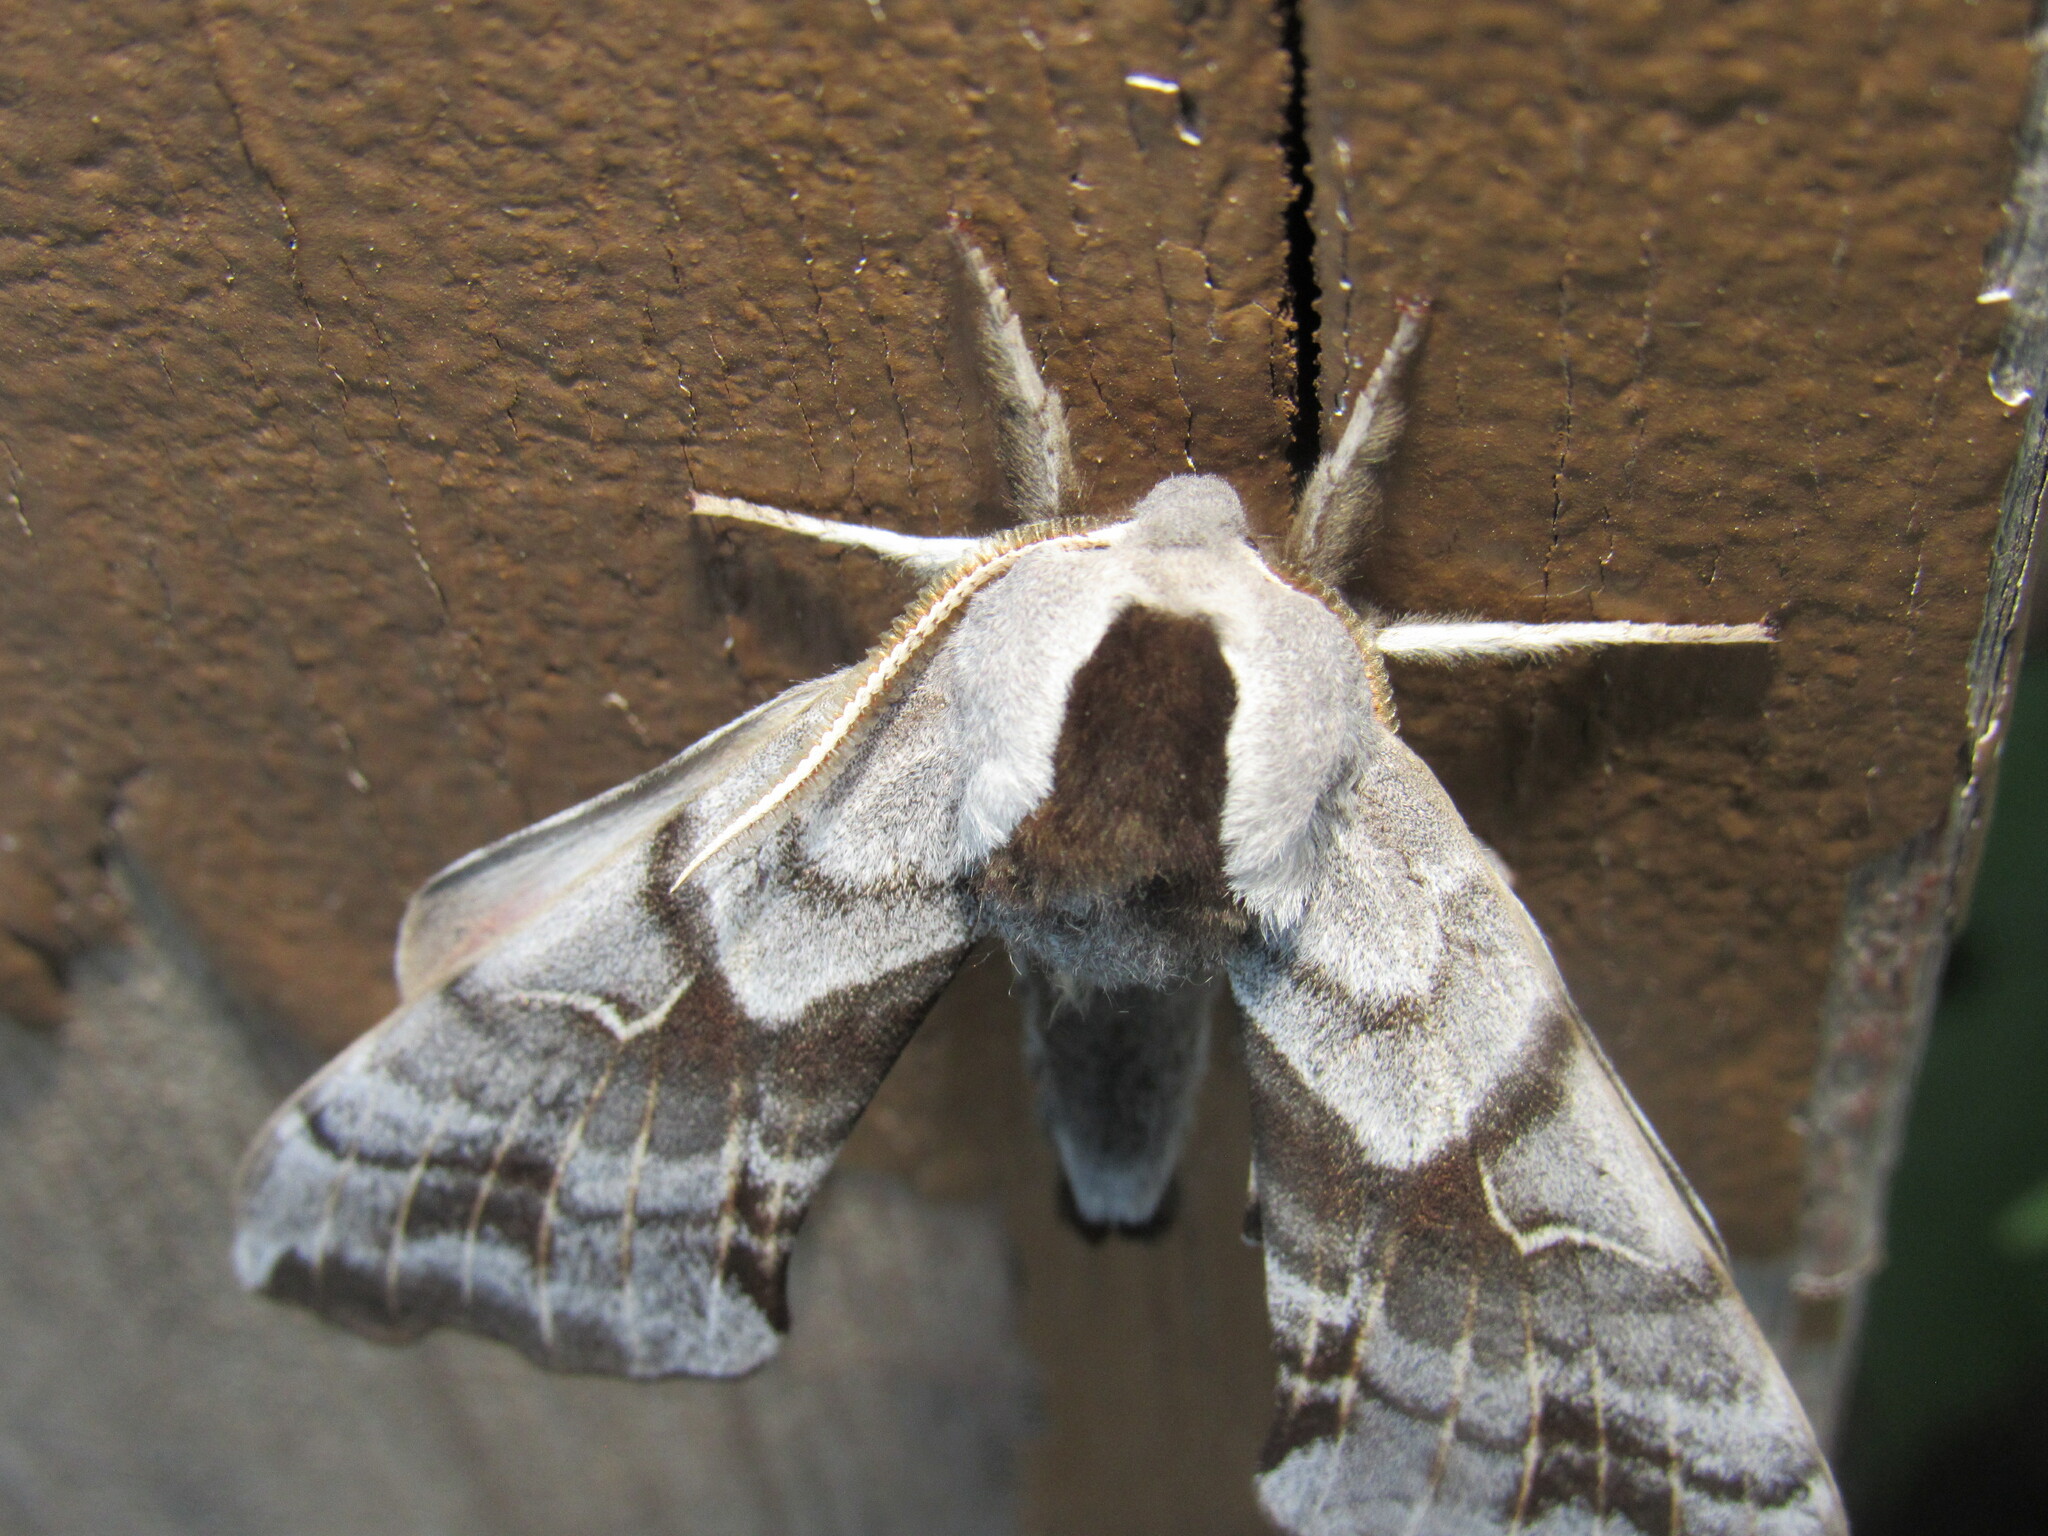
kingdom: Animalia
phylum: Arthropoda
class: Insecta
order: Lepidoptera
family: Sphingidae
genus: Smerinthus
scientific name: Smerinthus cerisyi
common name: Cerisy's sphinx moth
